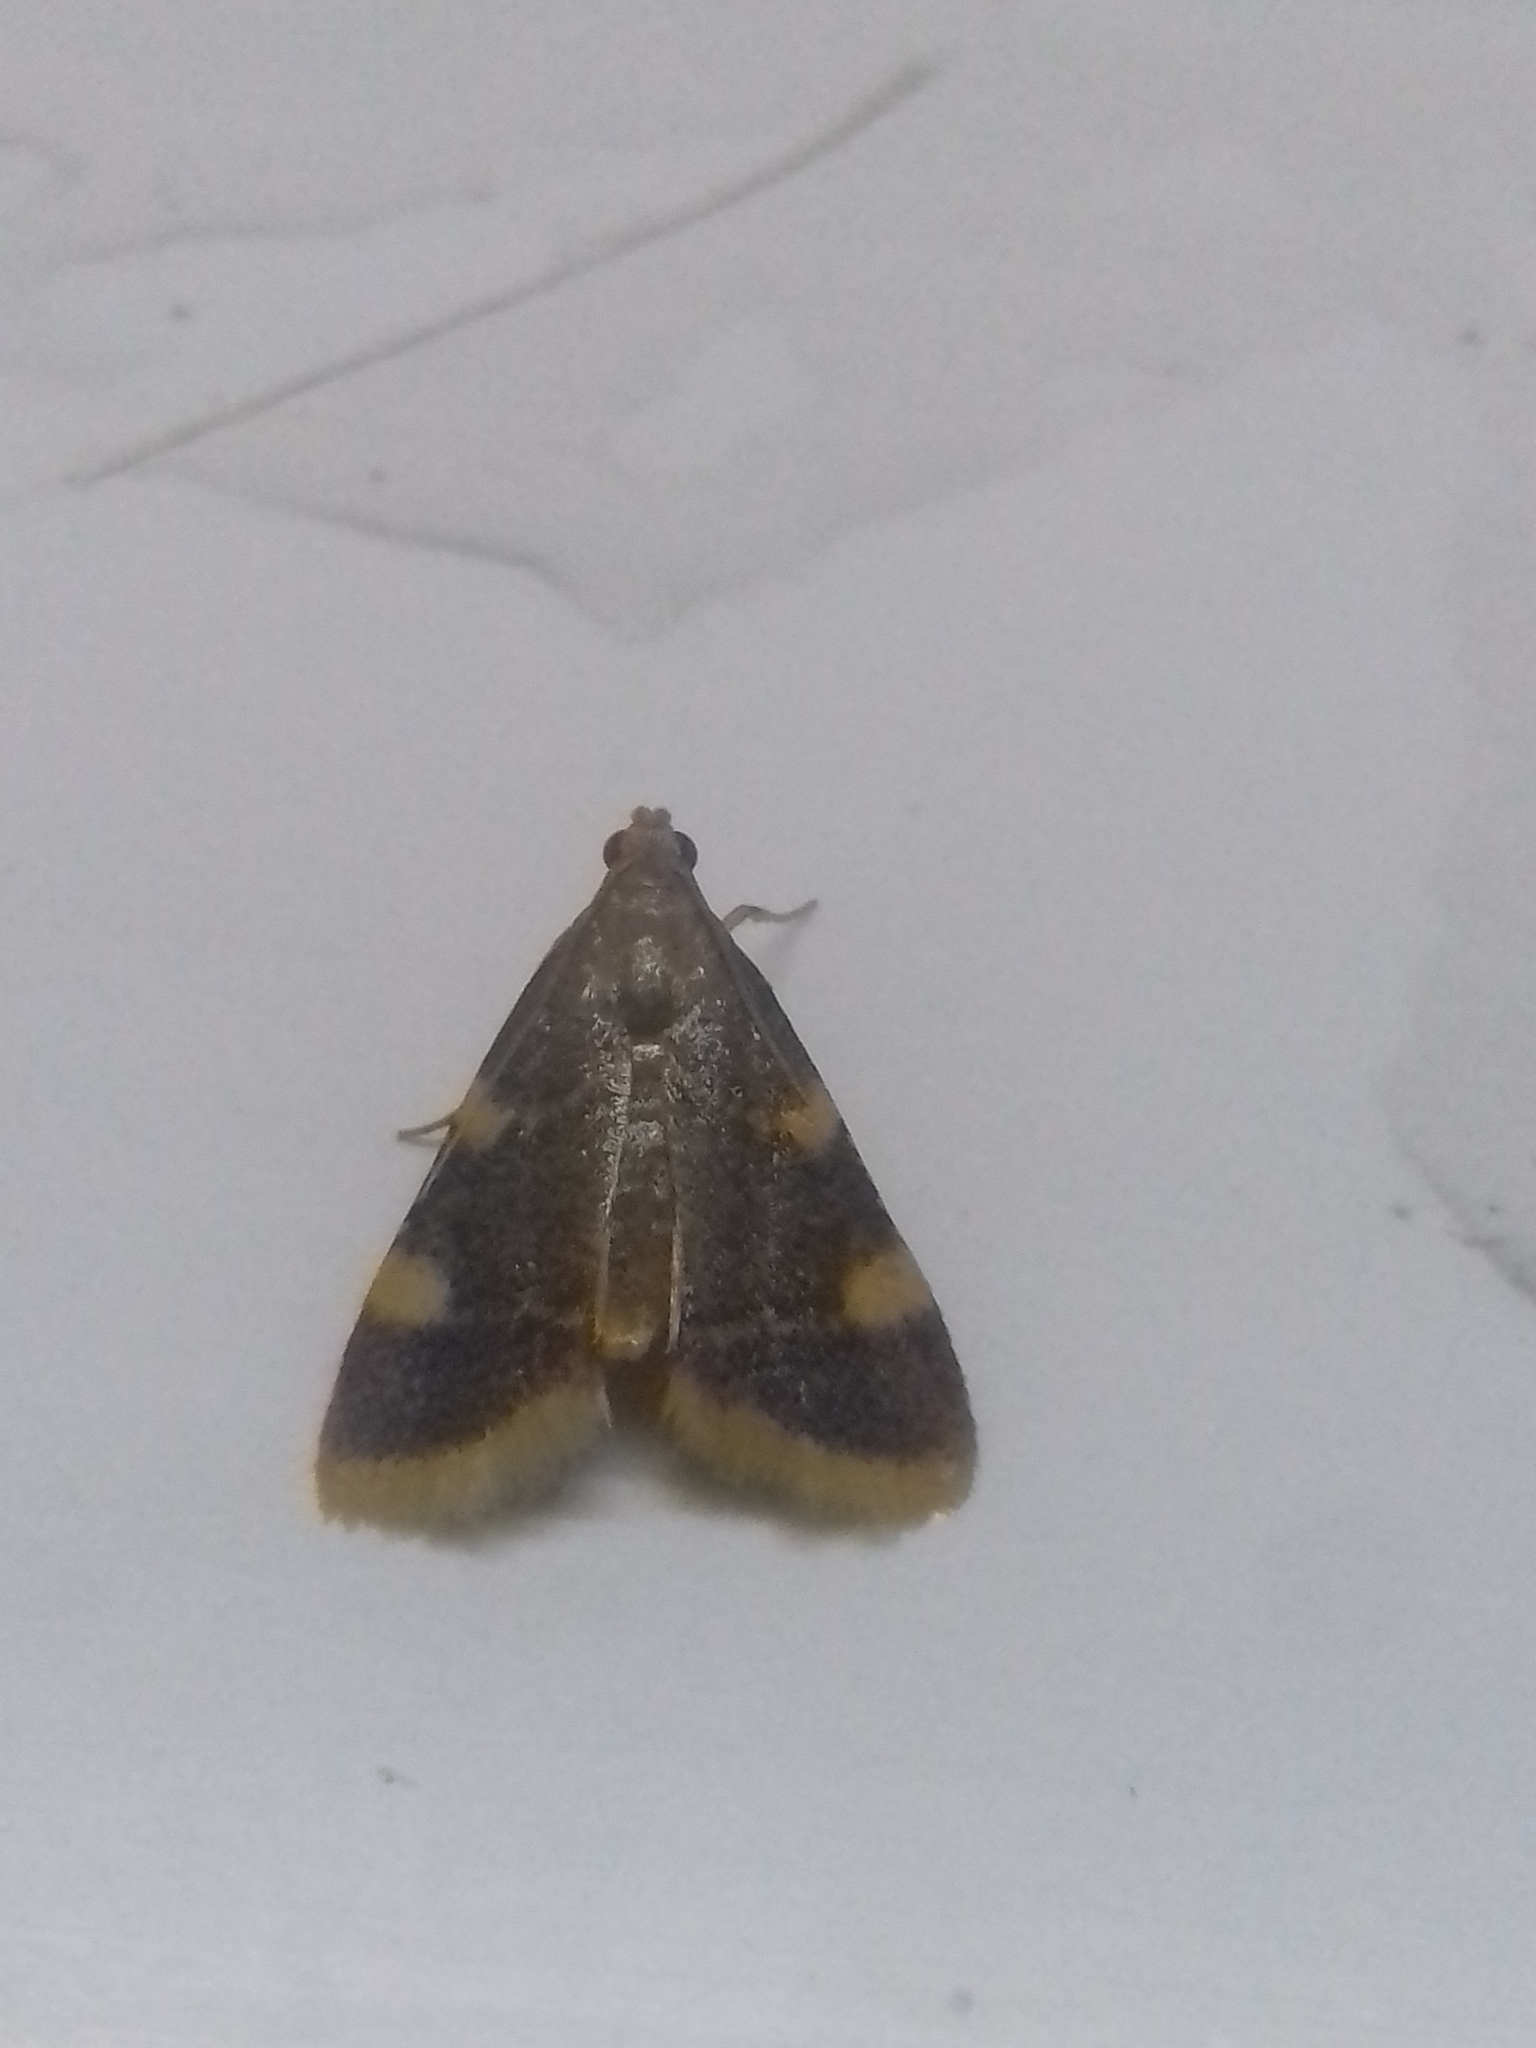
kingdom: Animalia
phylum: Arthropoda
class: Insecta
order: Lepidoptera
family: Pyralidae
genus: Hypsopygia
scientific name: Hypsopygia costalis
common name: Gold triangle
